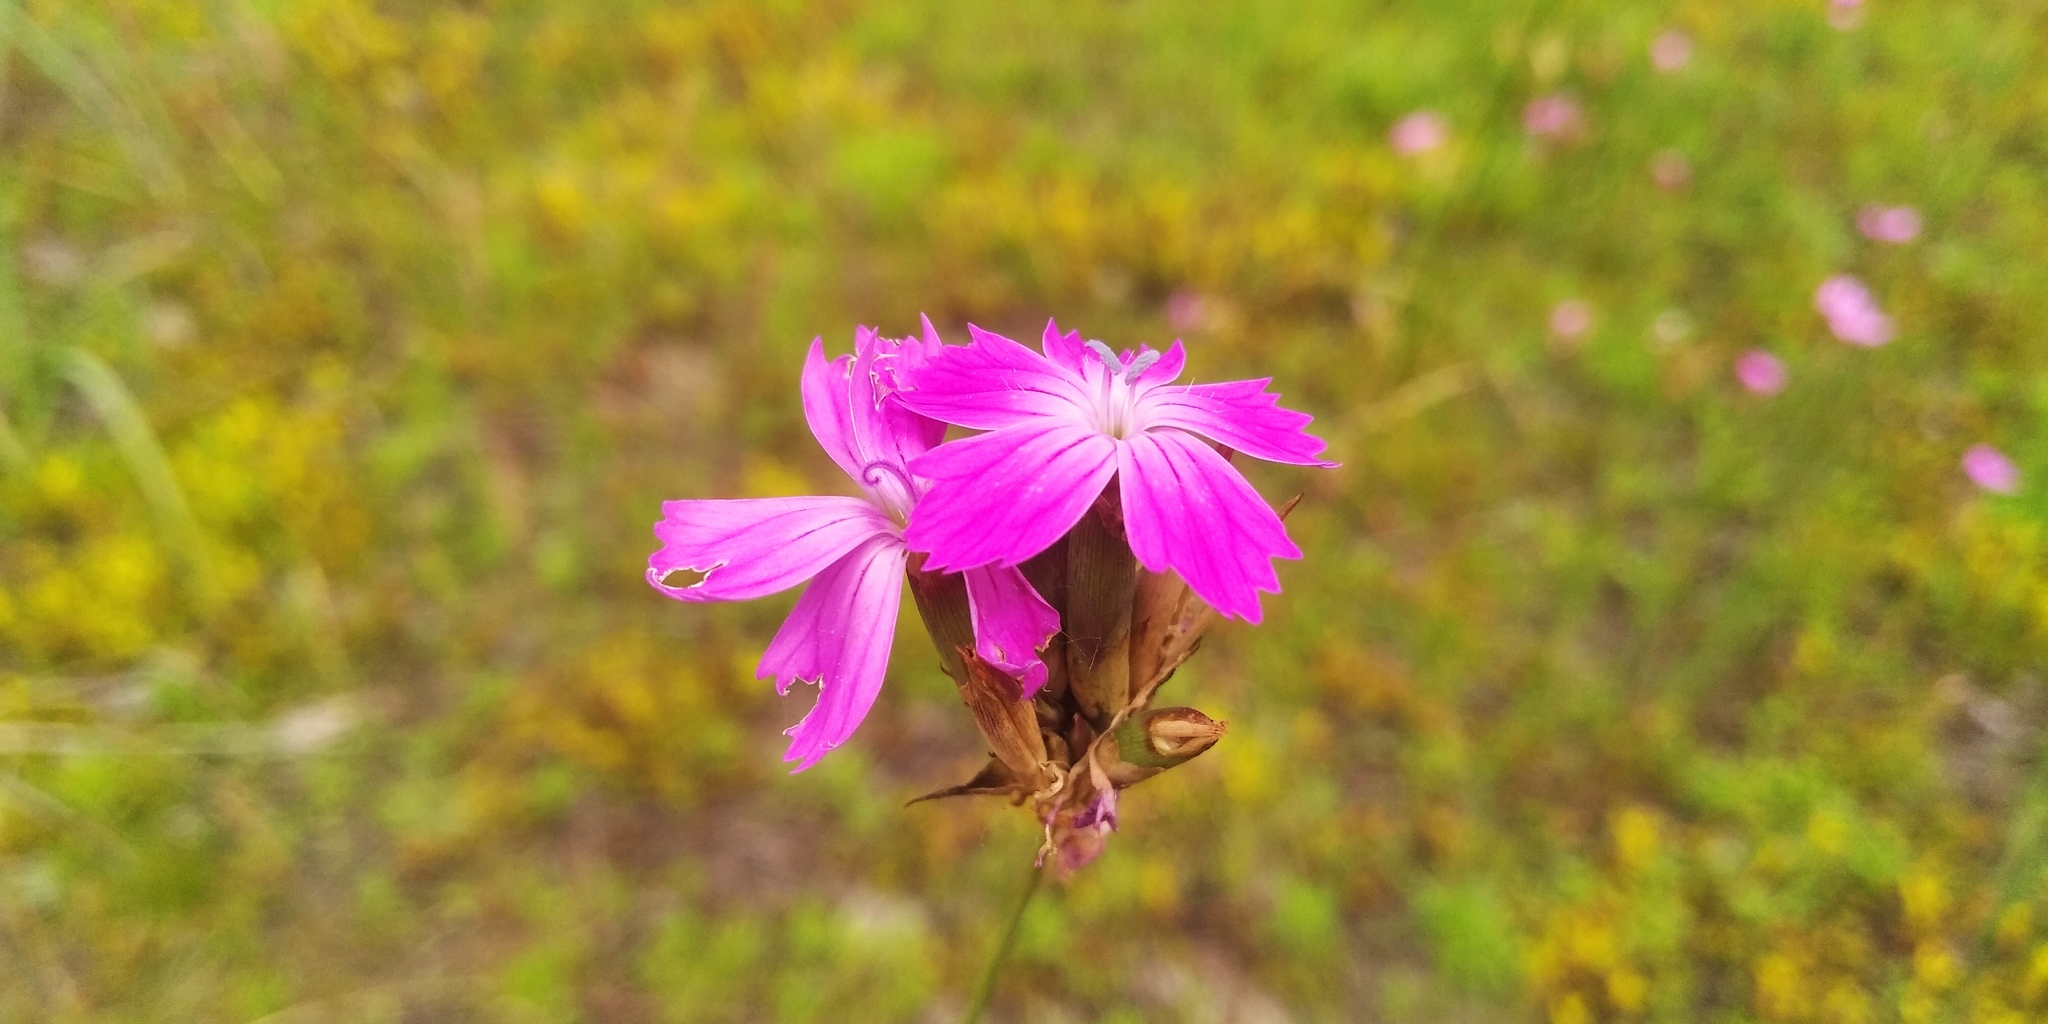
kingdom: Plantae
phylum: Tracheophyta
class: Magnoliopsida
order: Caryophyllales
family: Caryophyllaceae
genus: Dianthus
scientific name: Dianthus borbasii
